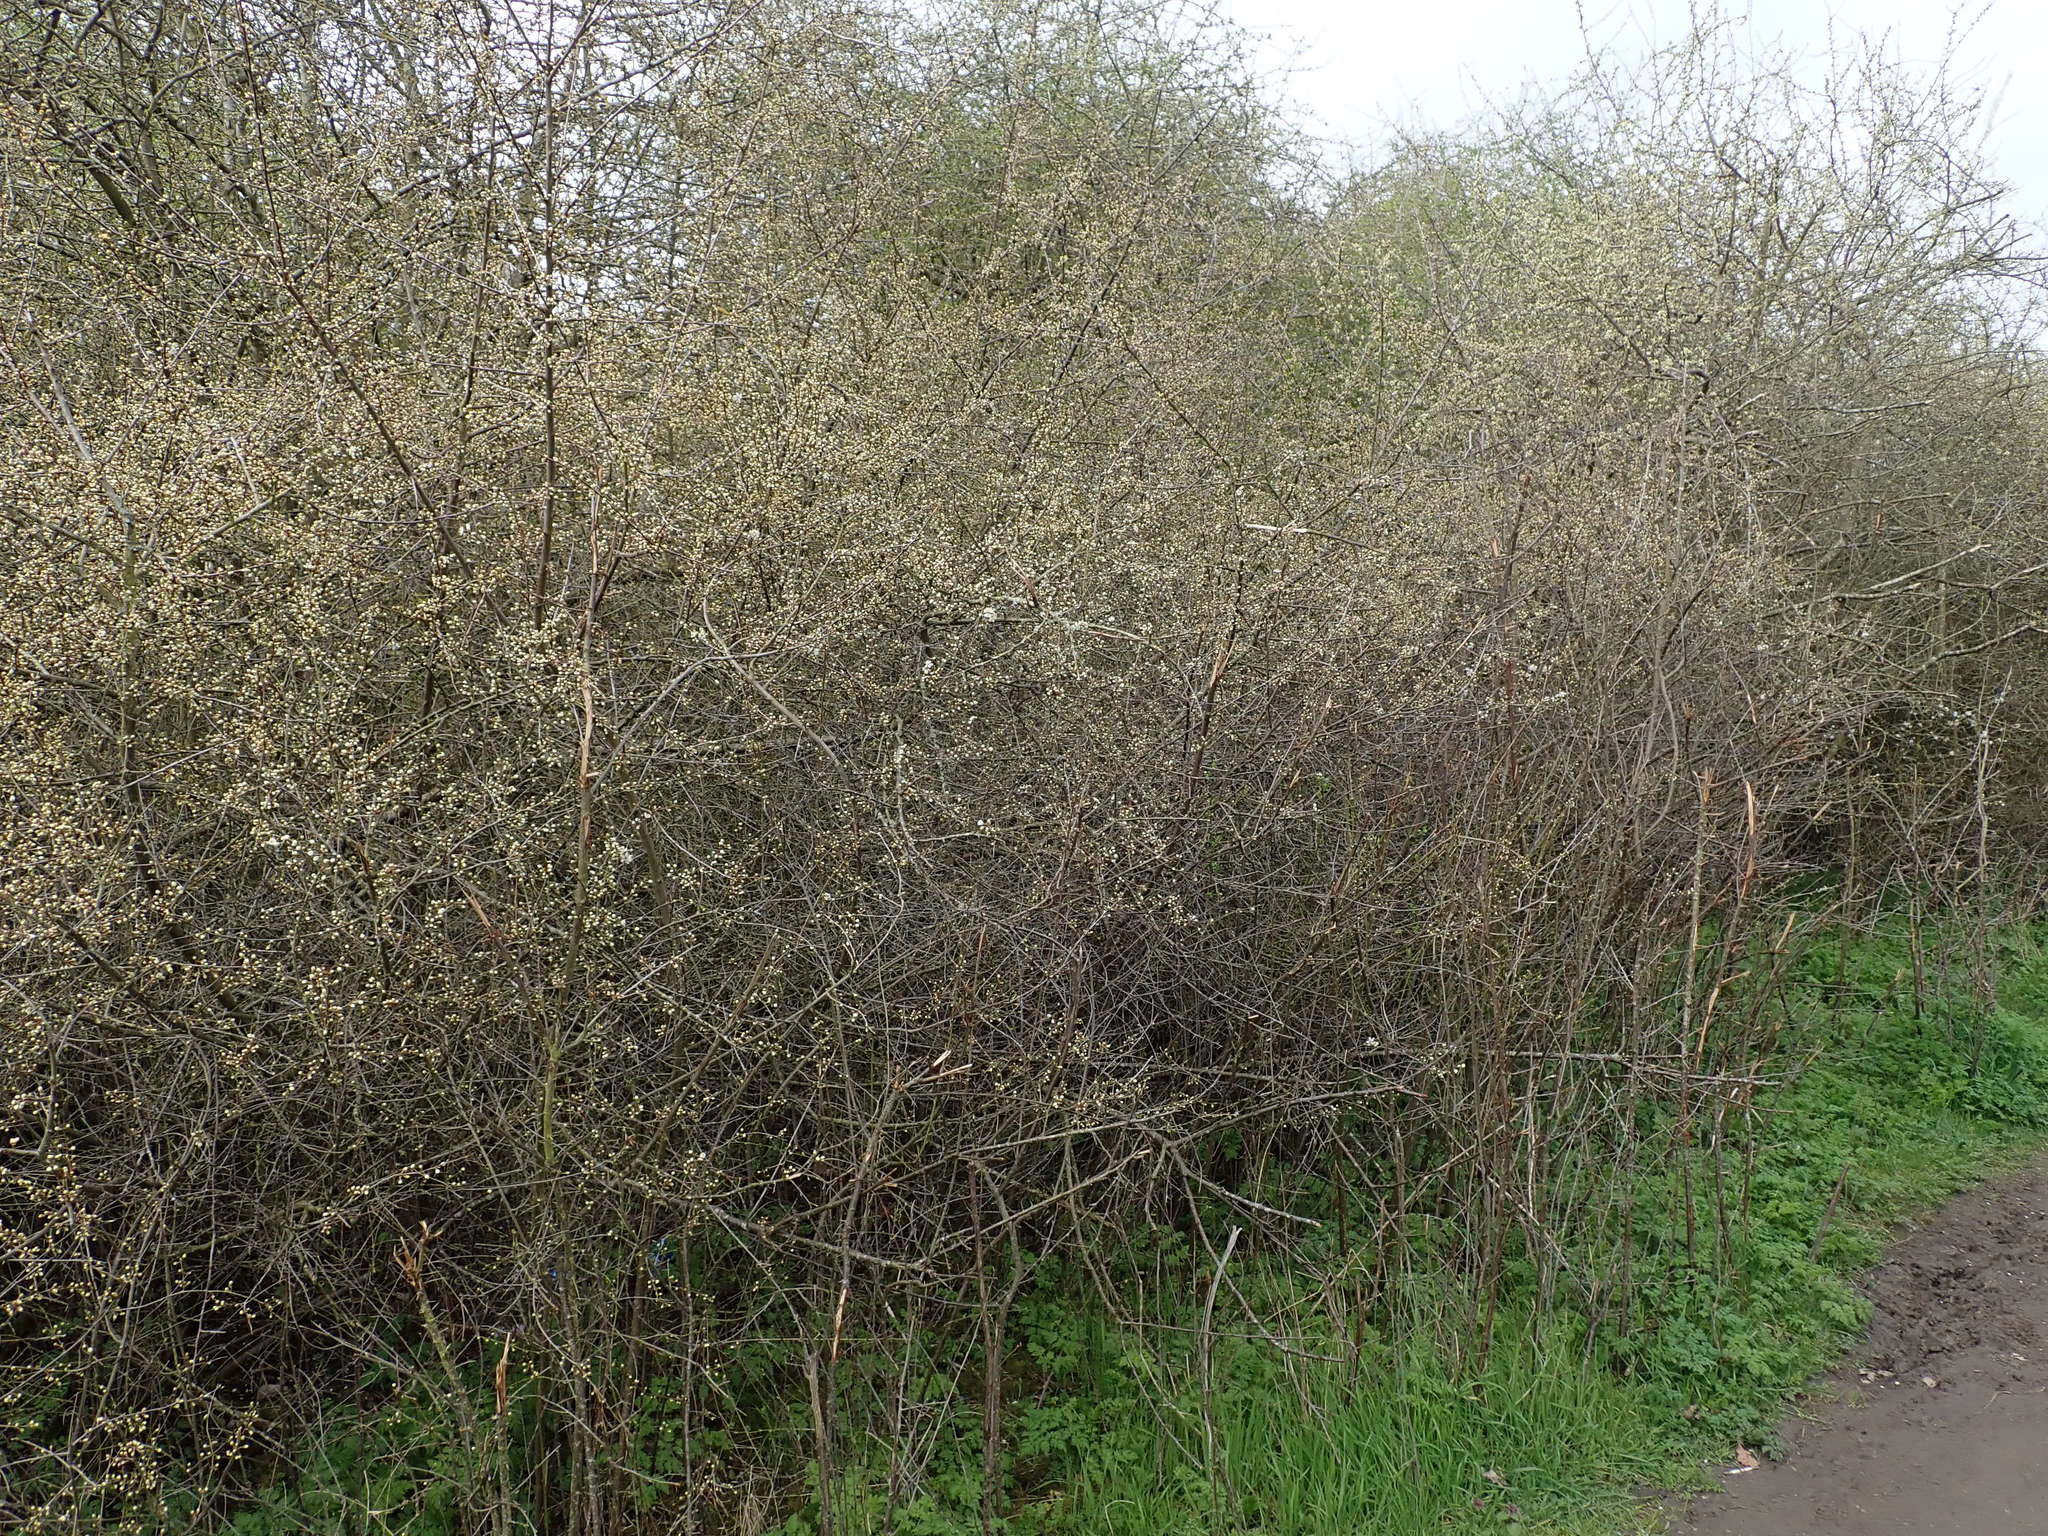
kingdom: Plantae
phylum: Tracheophyta
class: Magnoliopsida
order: Rosales
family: Rosaceae
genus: Prunus
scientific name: Prunus spinosa
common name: Blackthorn
